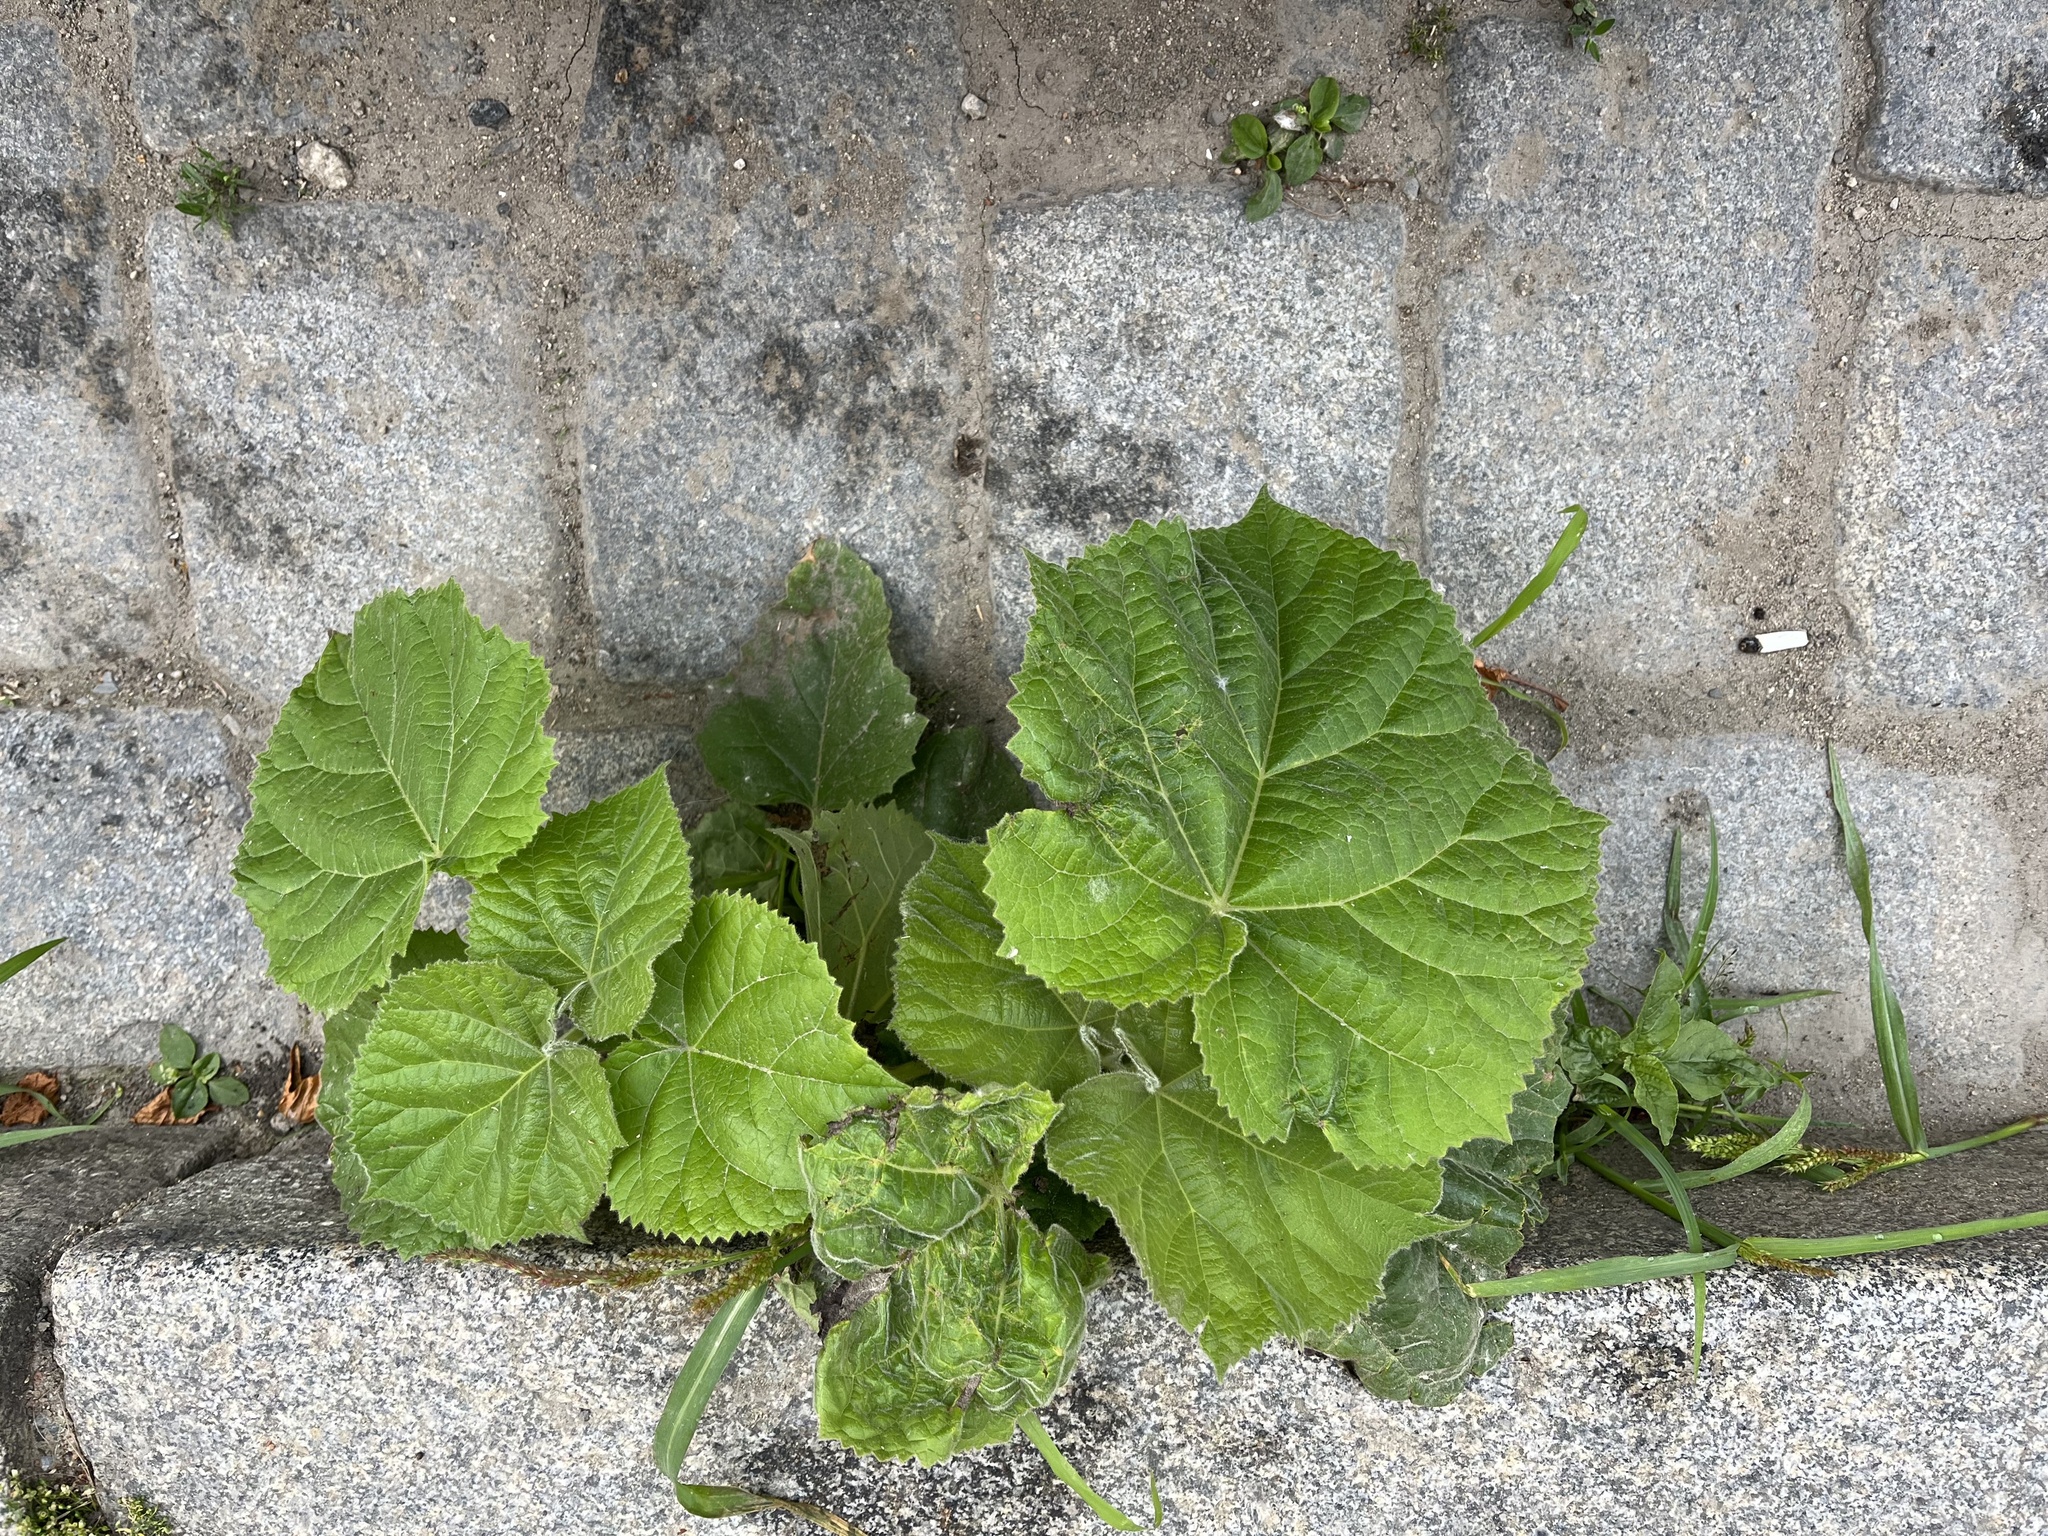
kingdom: Plantae
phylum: Tracheophyta
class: Magnoliopsida
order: Lamiales
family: Paulowniaceae
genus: Paulownia
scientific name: Paulownia tomentosa
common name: Foxglove-tree
